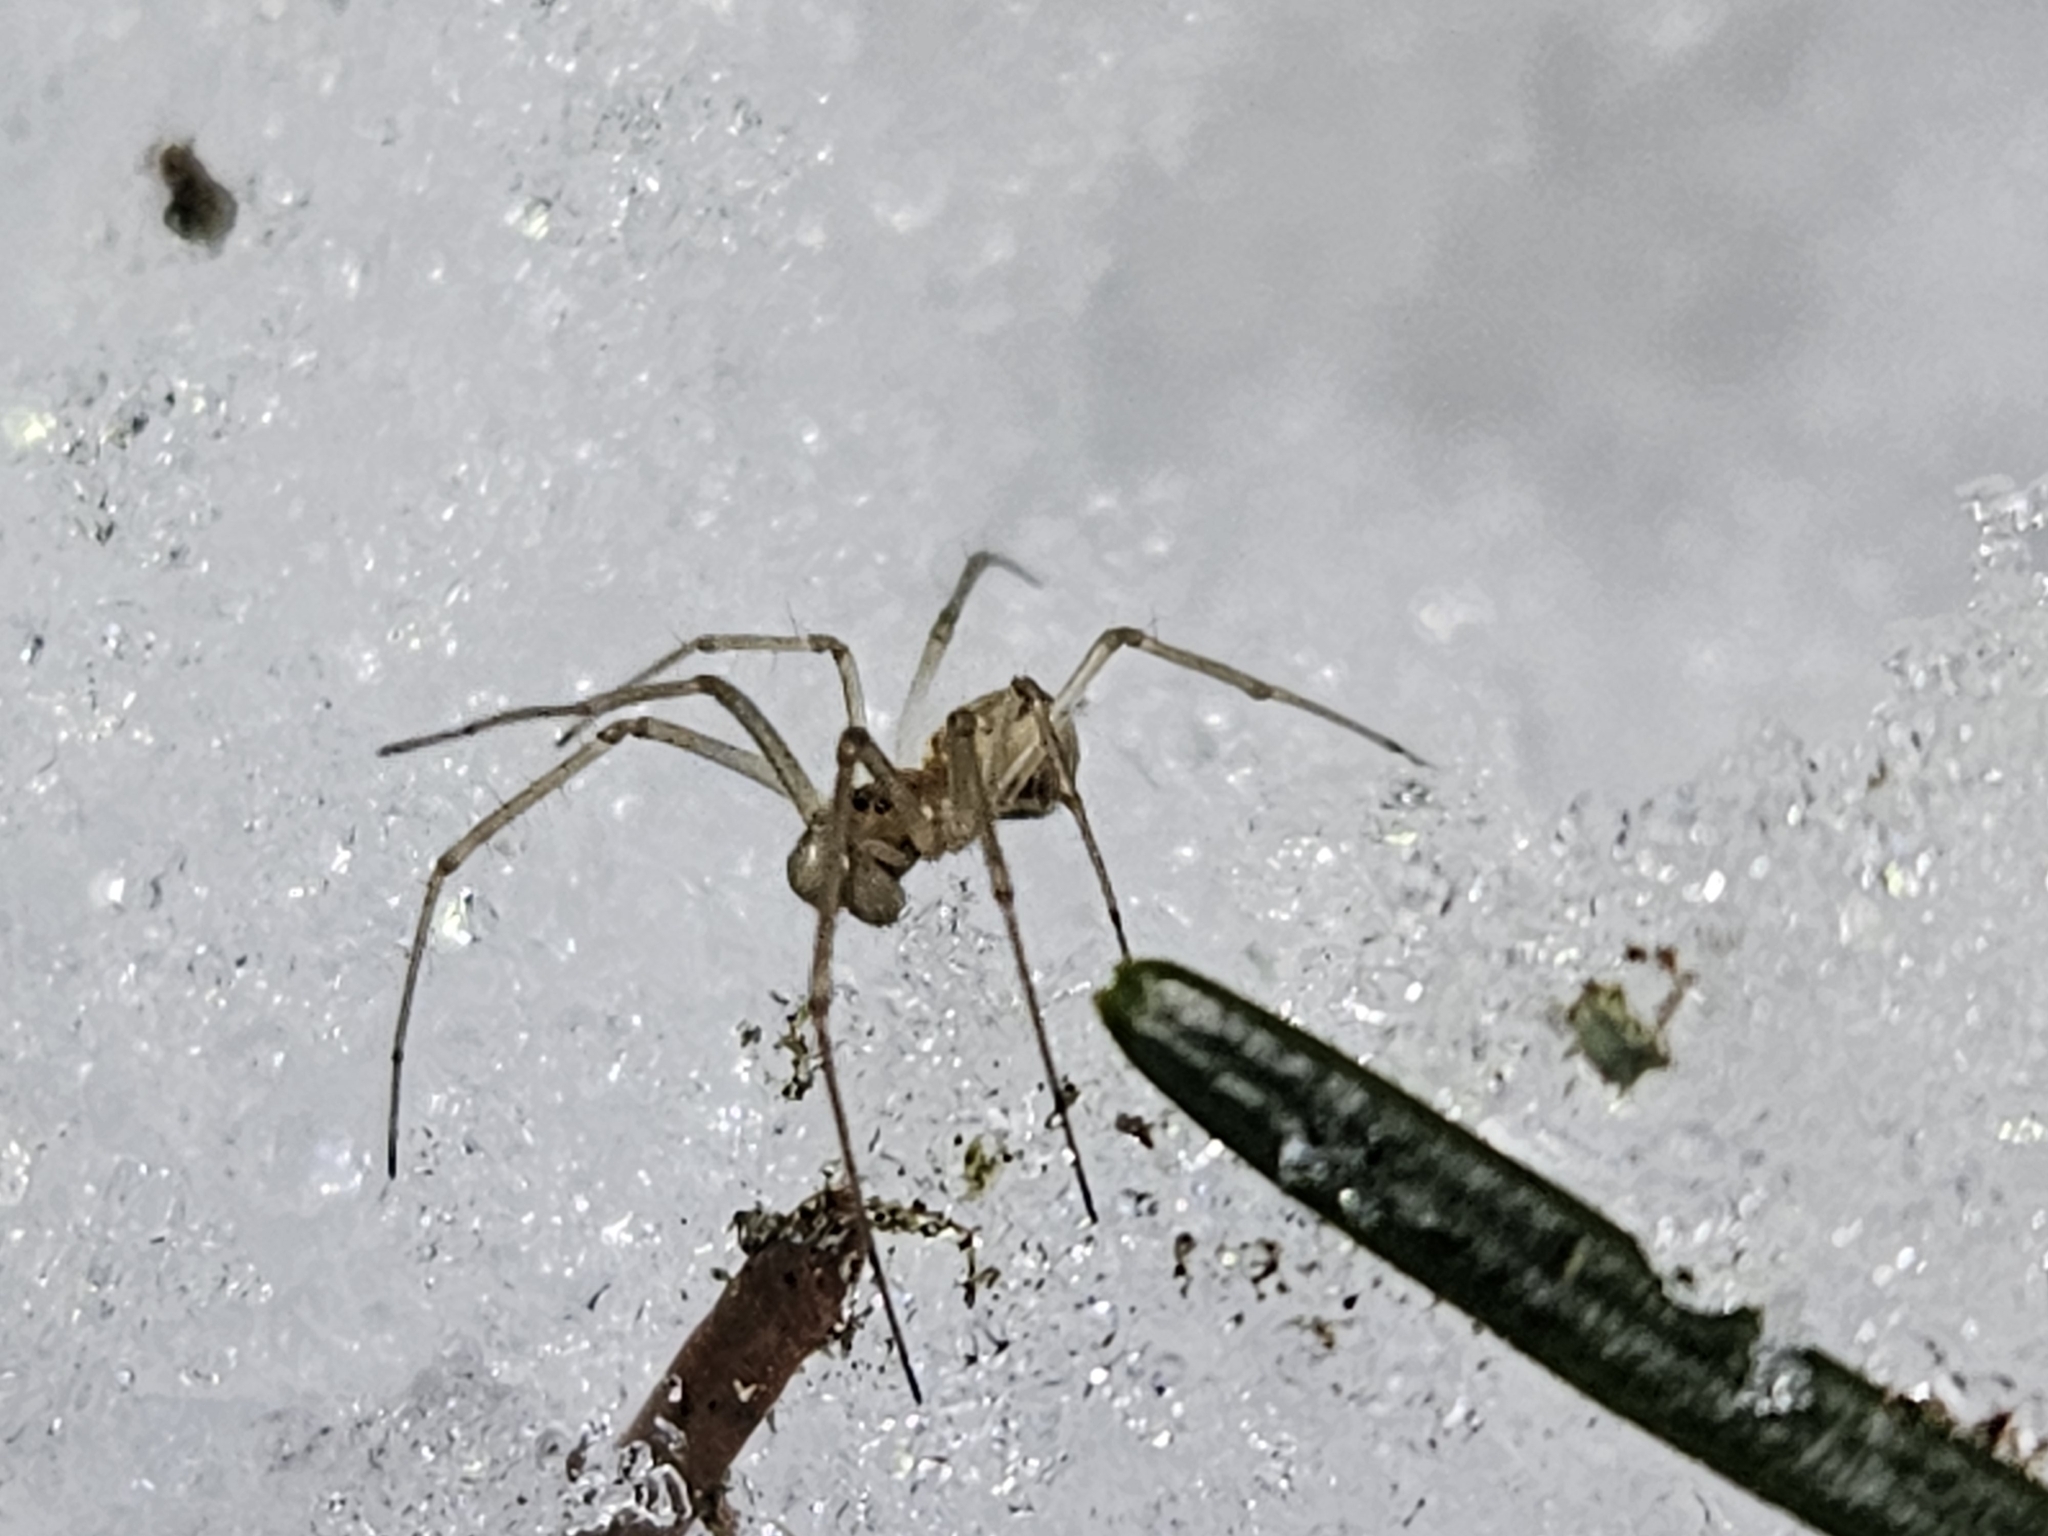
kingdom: Animalia
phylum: Arthropoda
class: Arachnida
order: Araneae
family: Linyphiidae
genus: Neriene
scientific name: Neriene radiata
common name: Filmy dome spider
